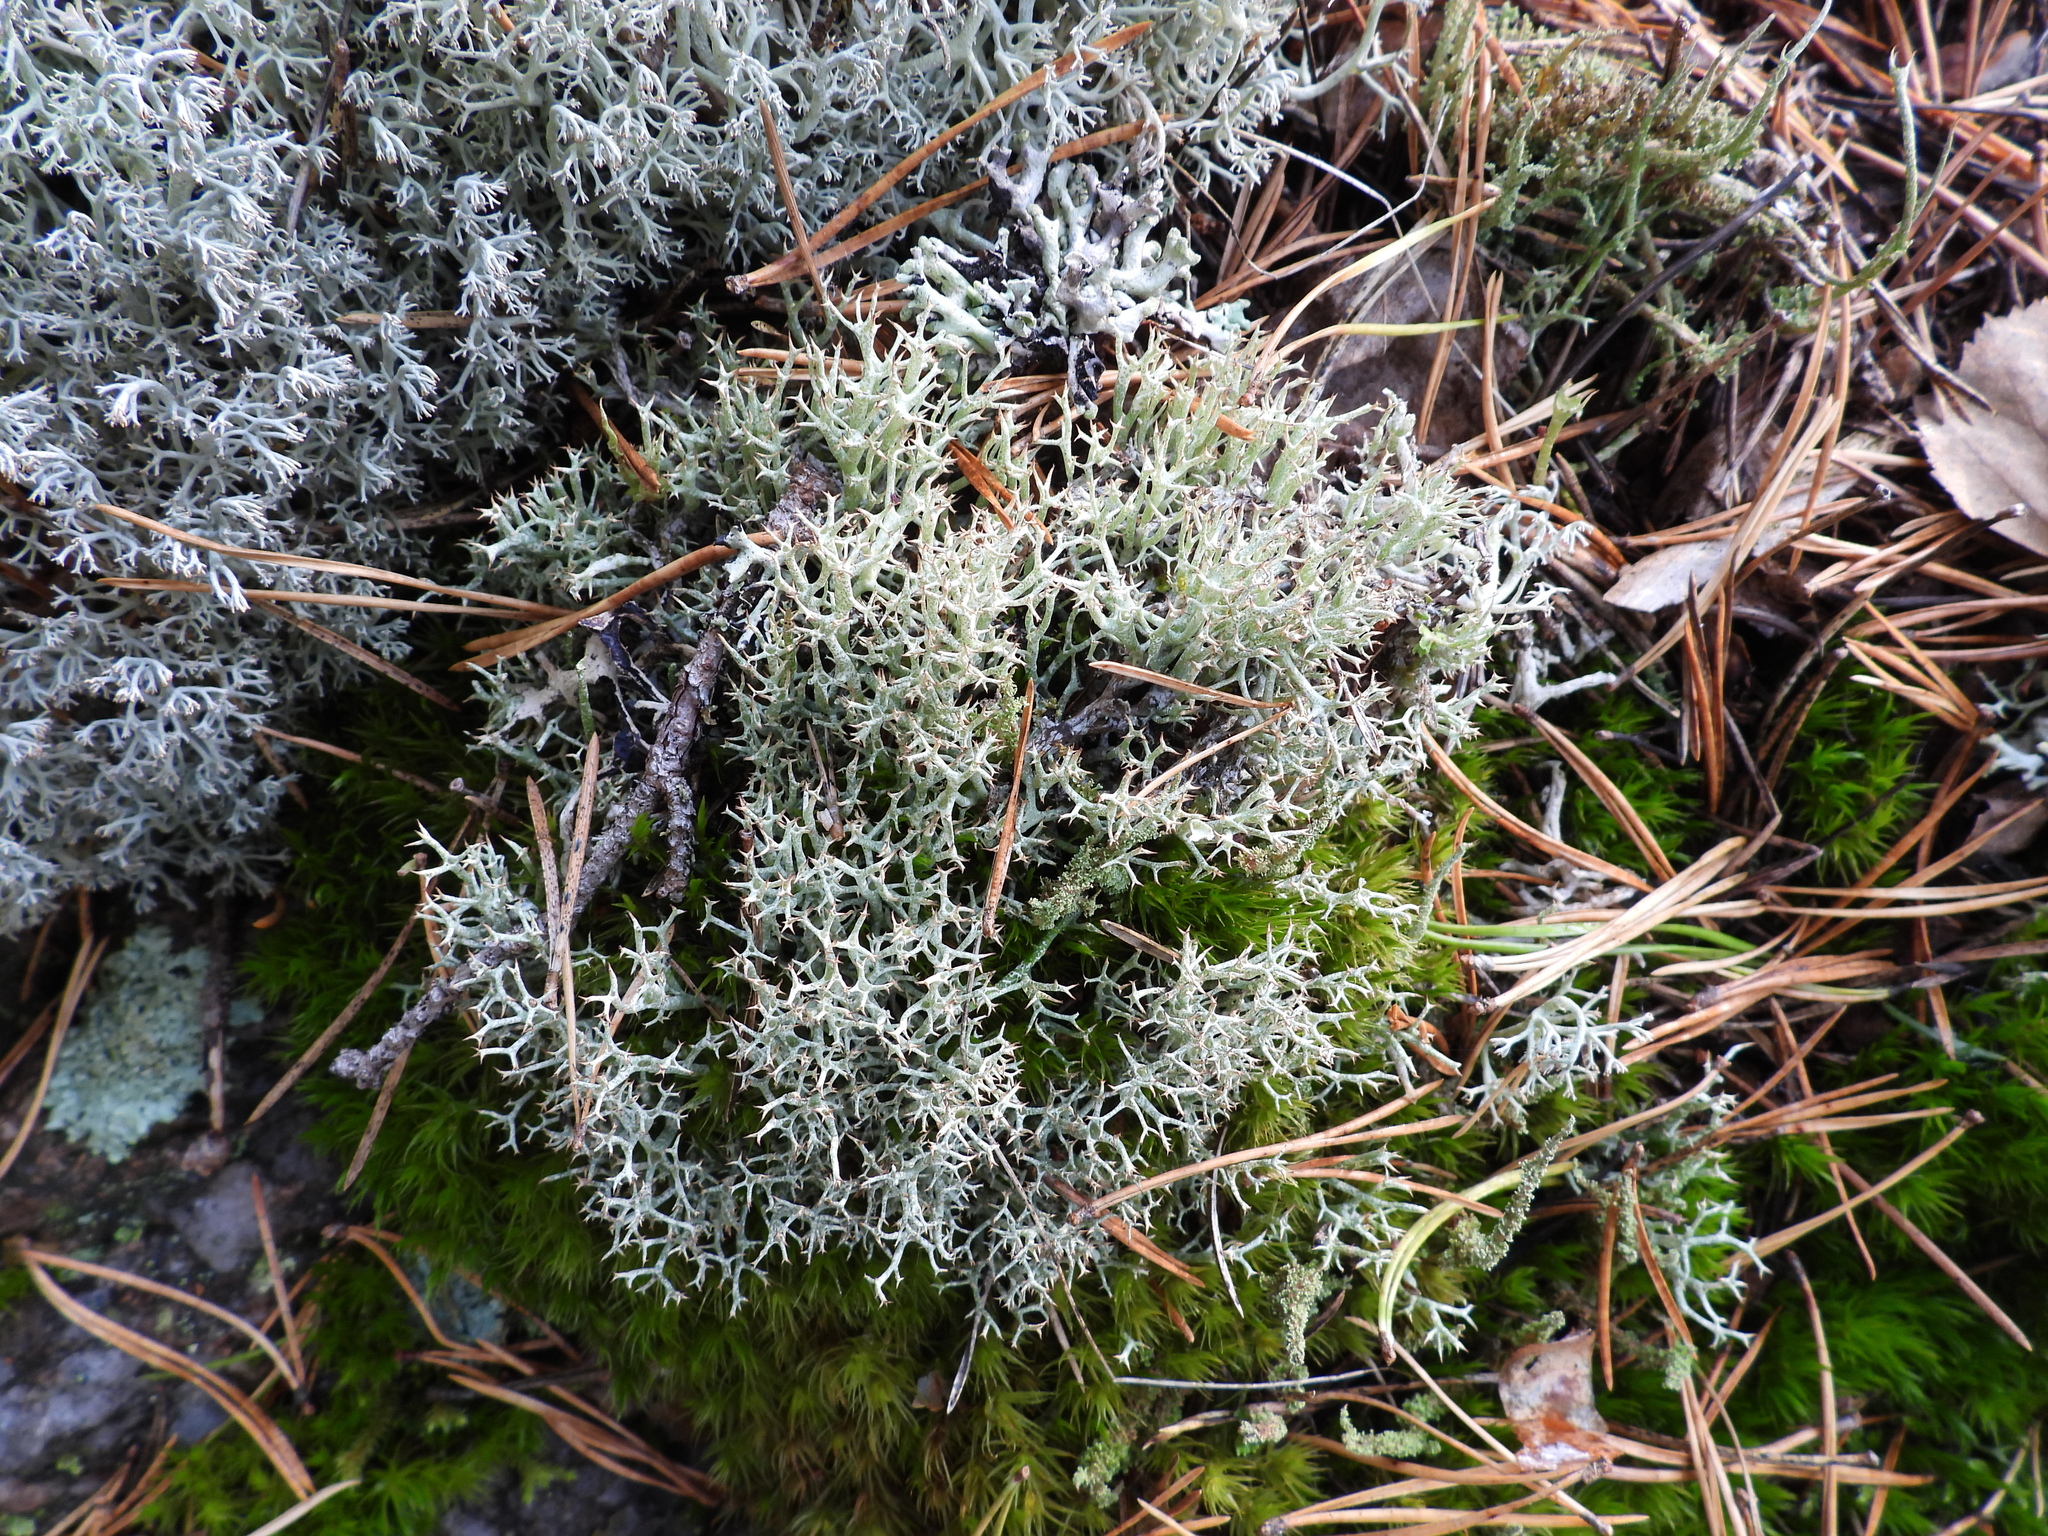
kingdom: Fungi
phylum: Ascomycota
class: Lecanoromycetes
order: Lecanorales
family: Cladoniaceae
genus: Cladonia
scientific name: Cladonia uncialis
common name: Thorn lichen
